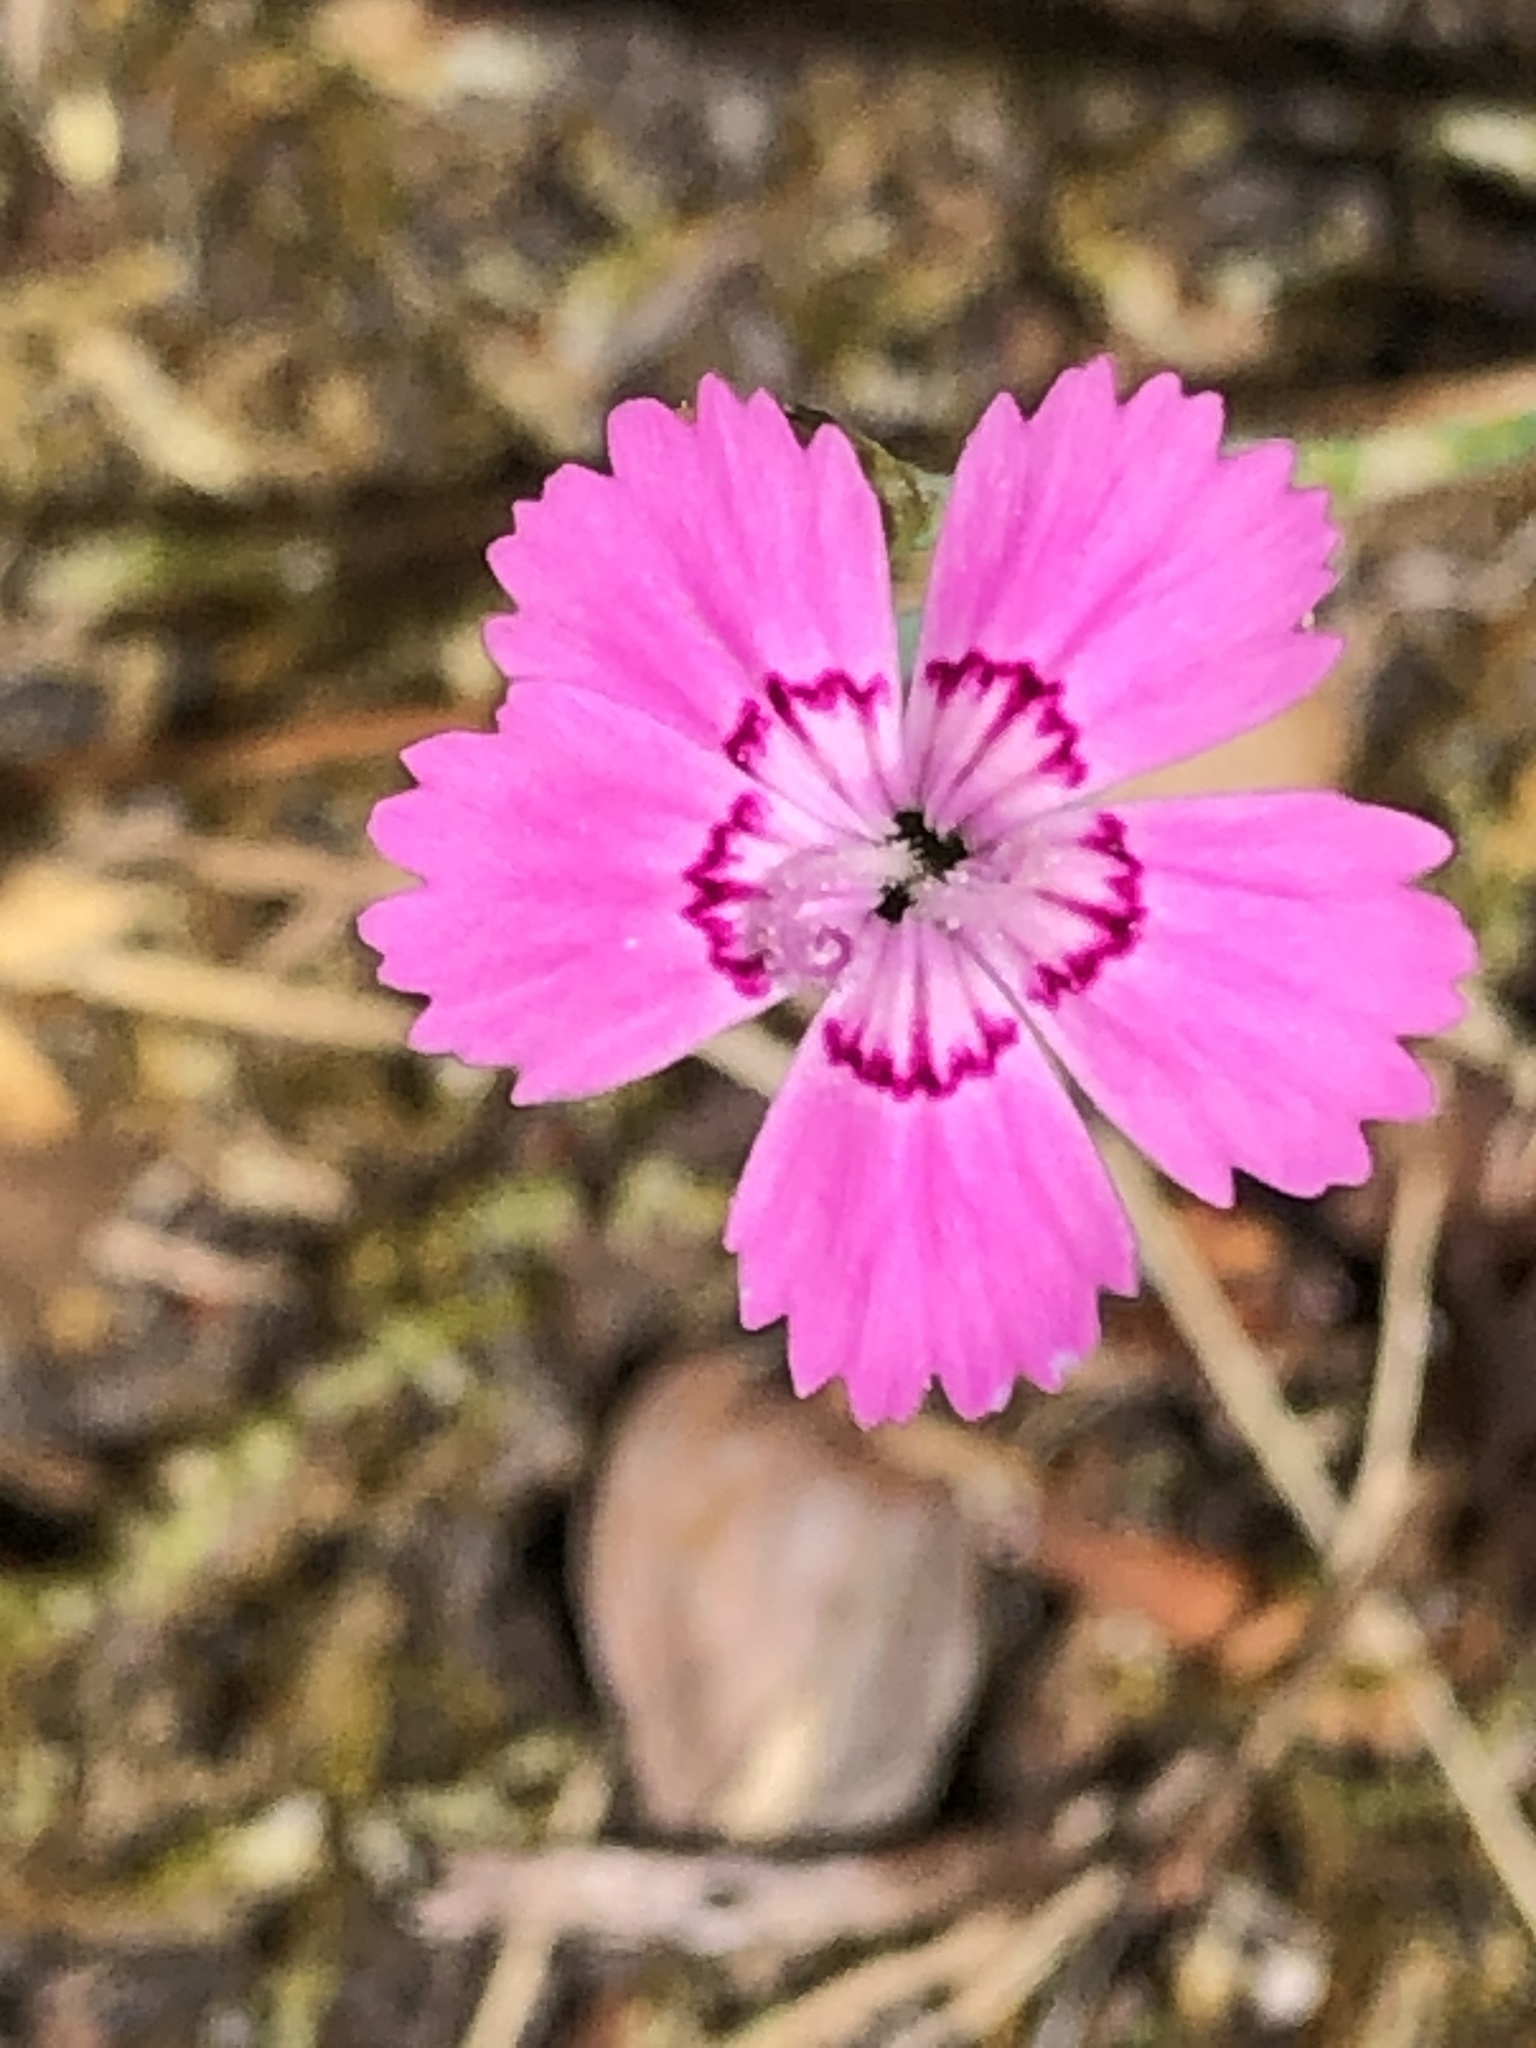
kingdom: Plantae
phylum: Tracheophyta
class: Magnoliopsida
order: Caryophyllales
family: Caryophyllaceae
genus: Dianthus
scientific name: Dianthus deltoides
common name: Maiden pink
